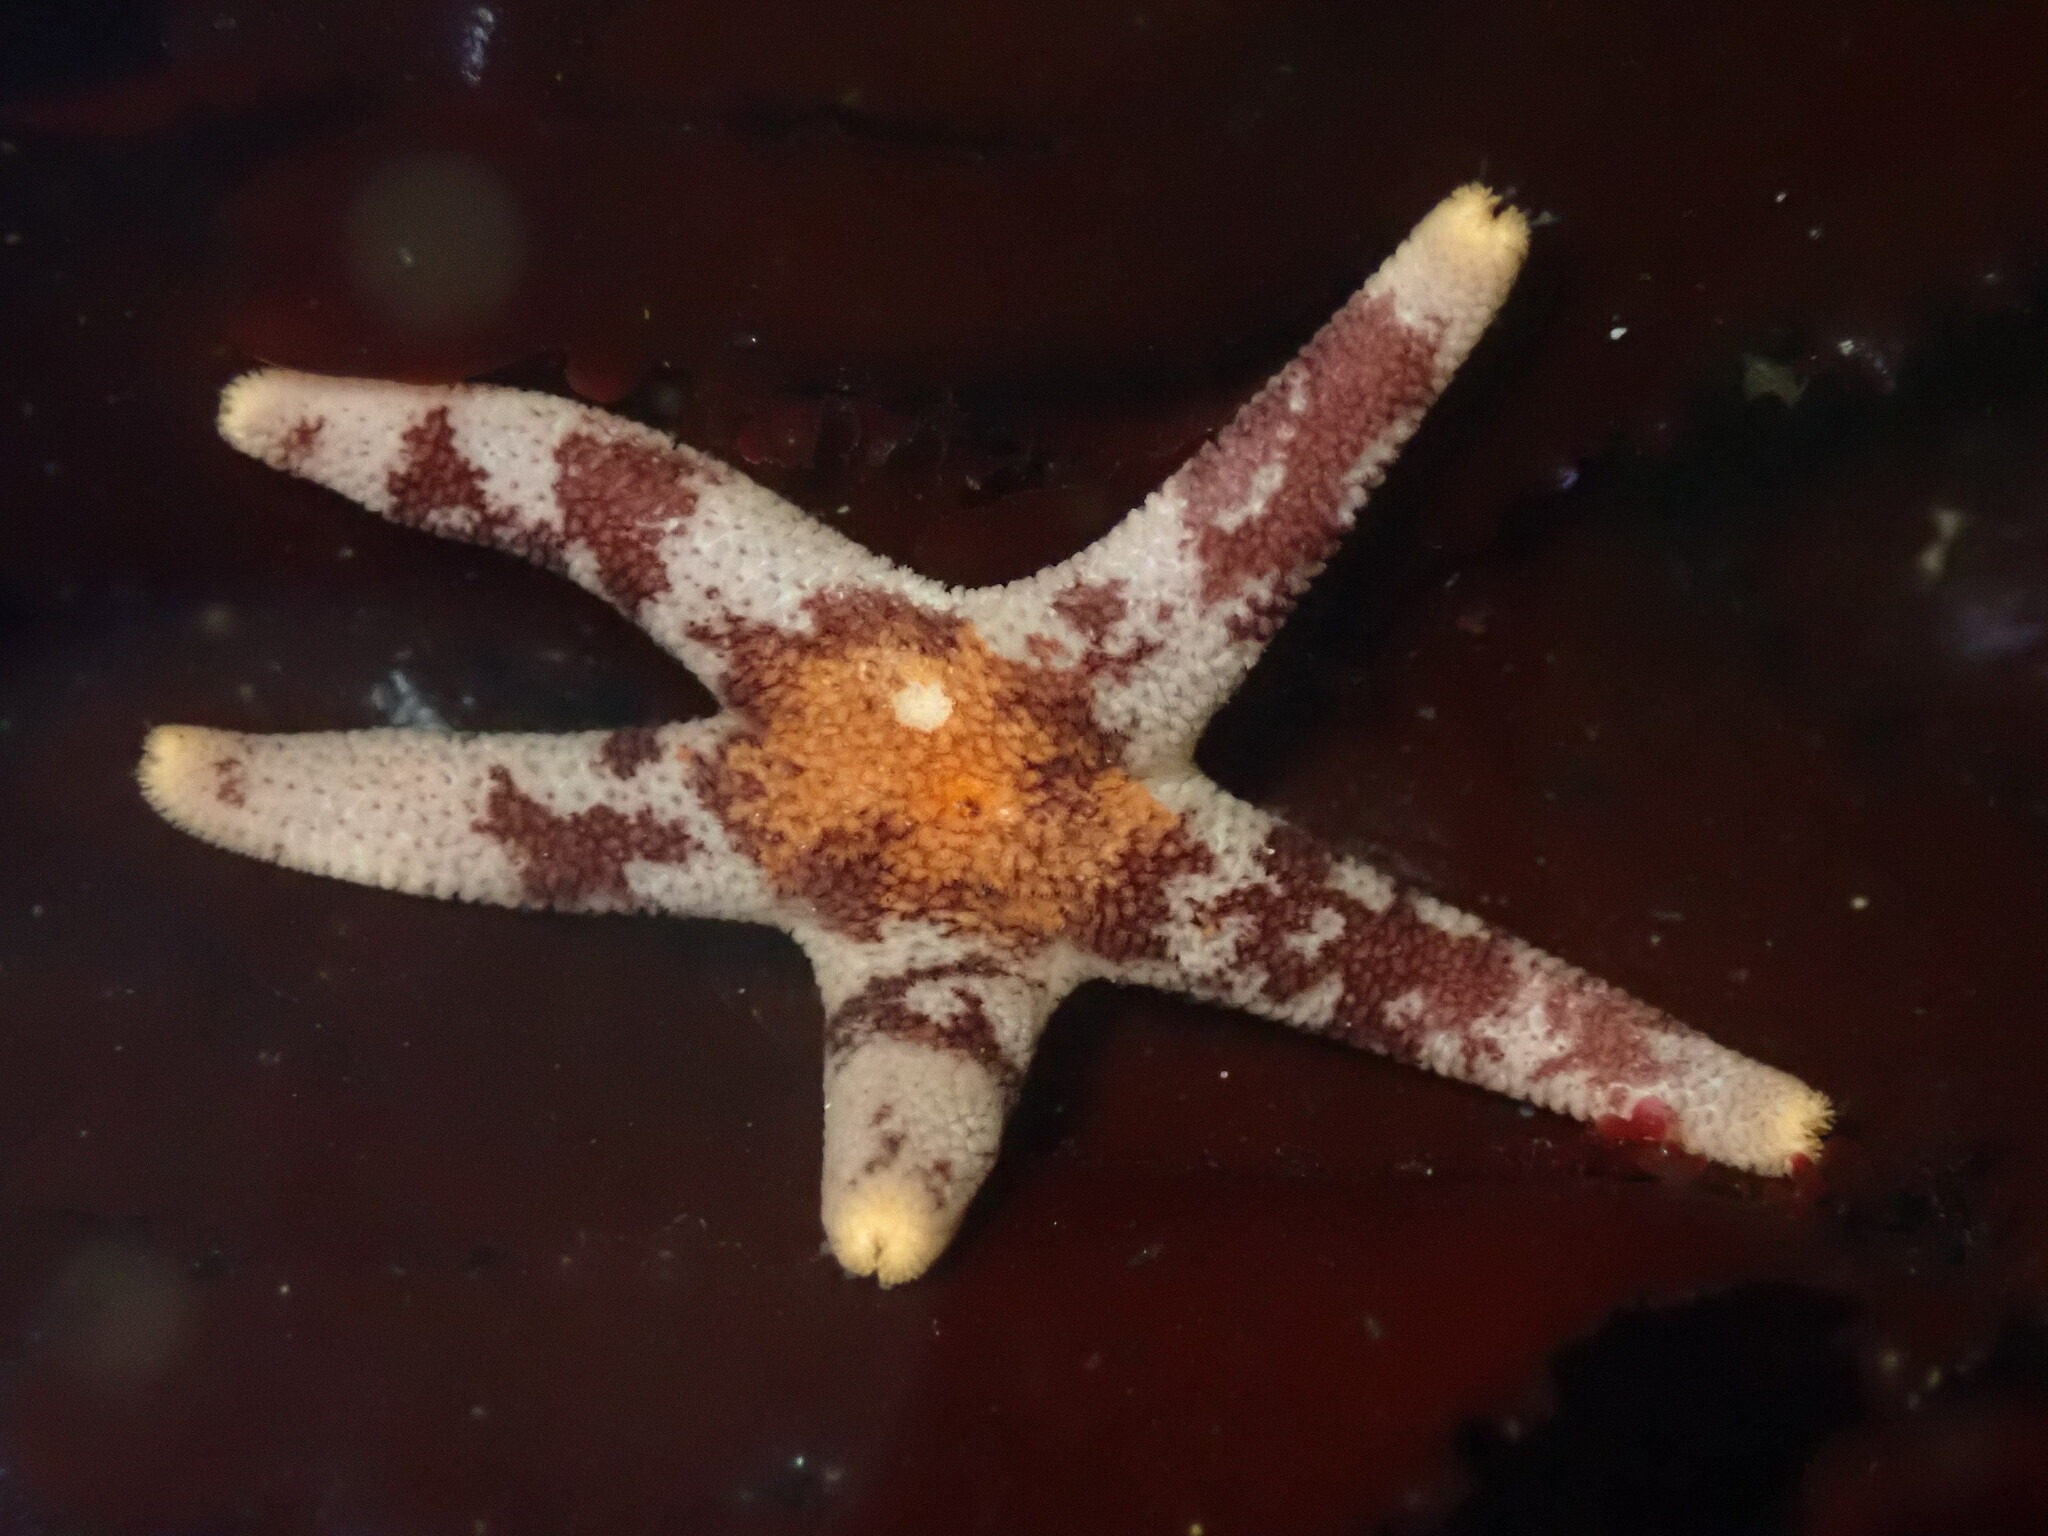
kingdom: Animalia
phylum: Echinodermata
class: Asteroidea
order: Spinulosida
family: Echinasteridae
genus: Henricia
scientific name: Henricia pumila
